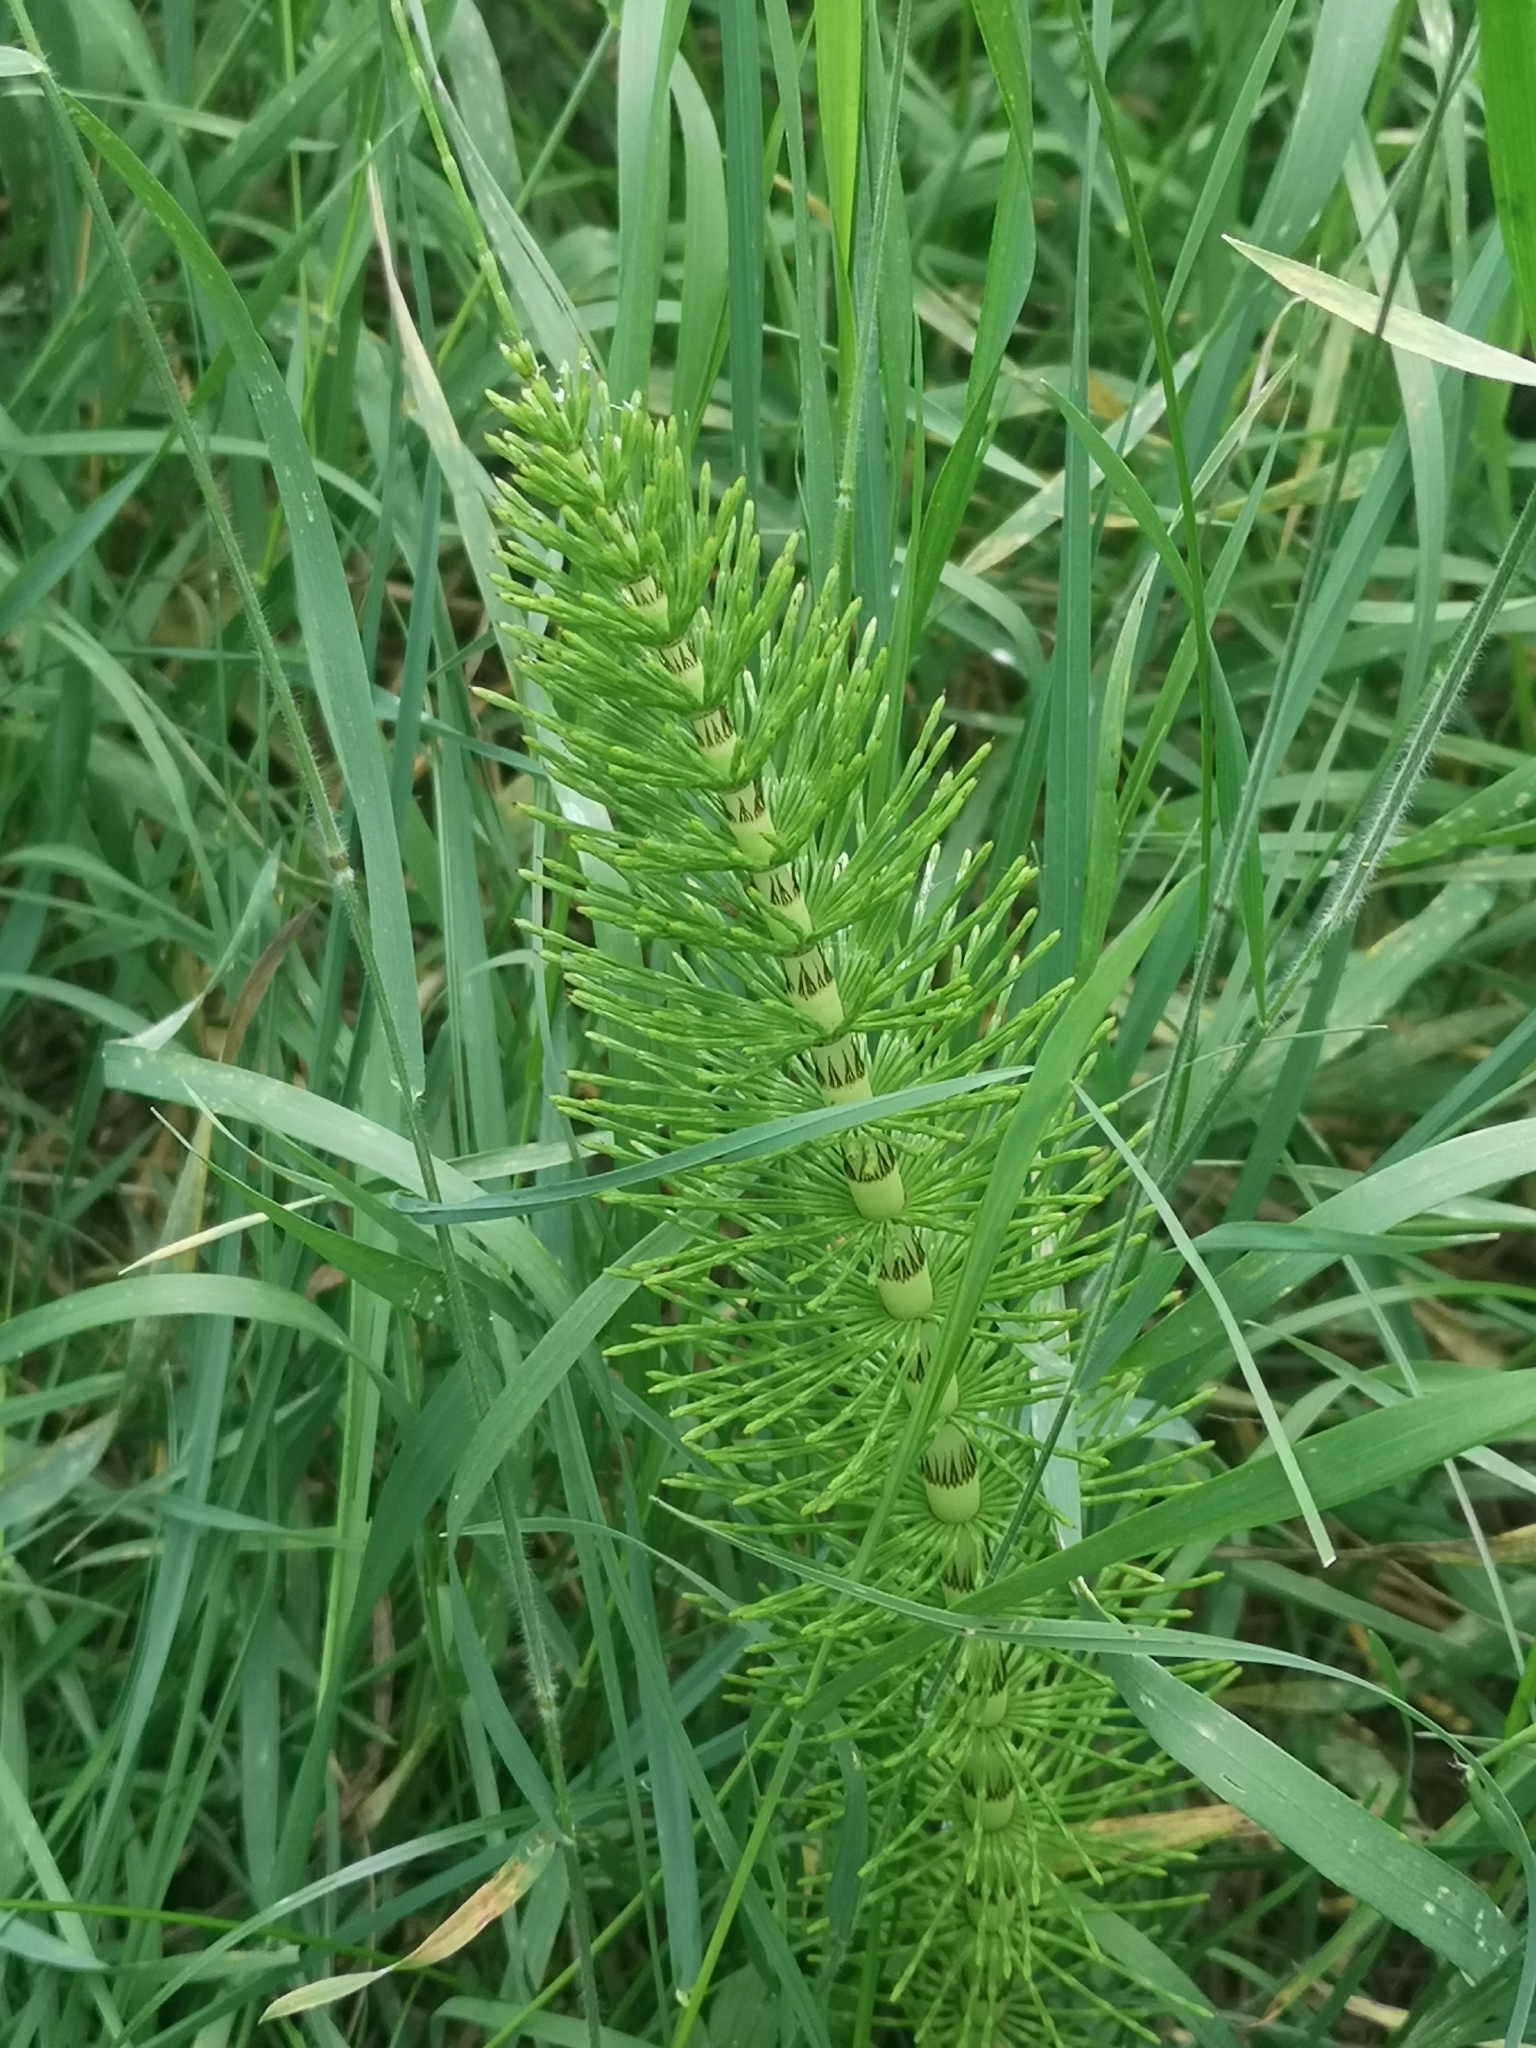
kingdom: Plantae
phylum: Tracheophyta
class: Polypodiopsida
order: Equisetales
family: Equisetaceae
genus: Equisetum
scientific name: Equisetum telmateia
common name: Great horsetail
